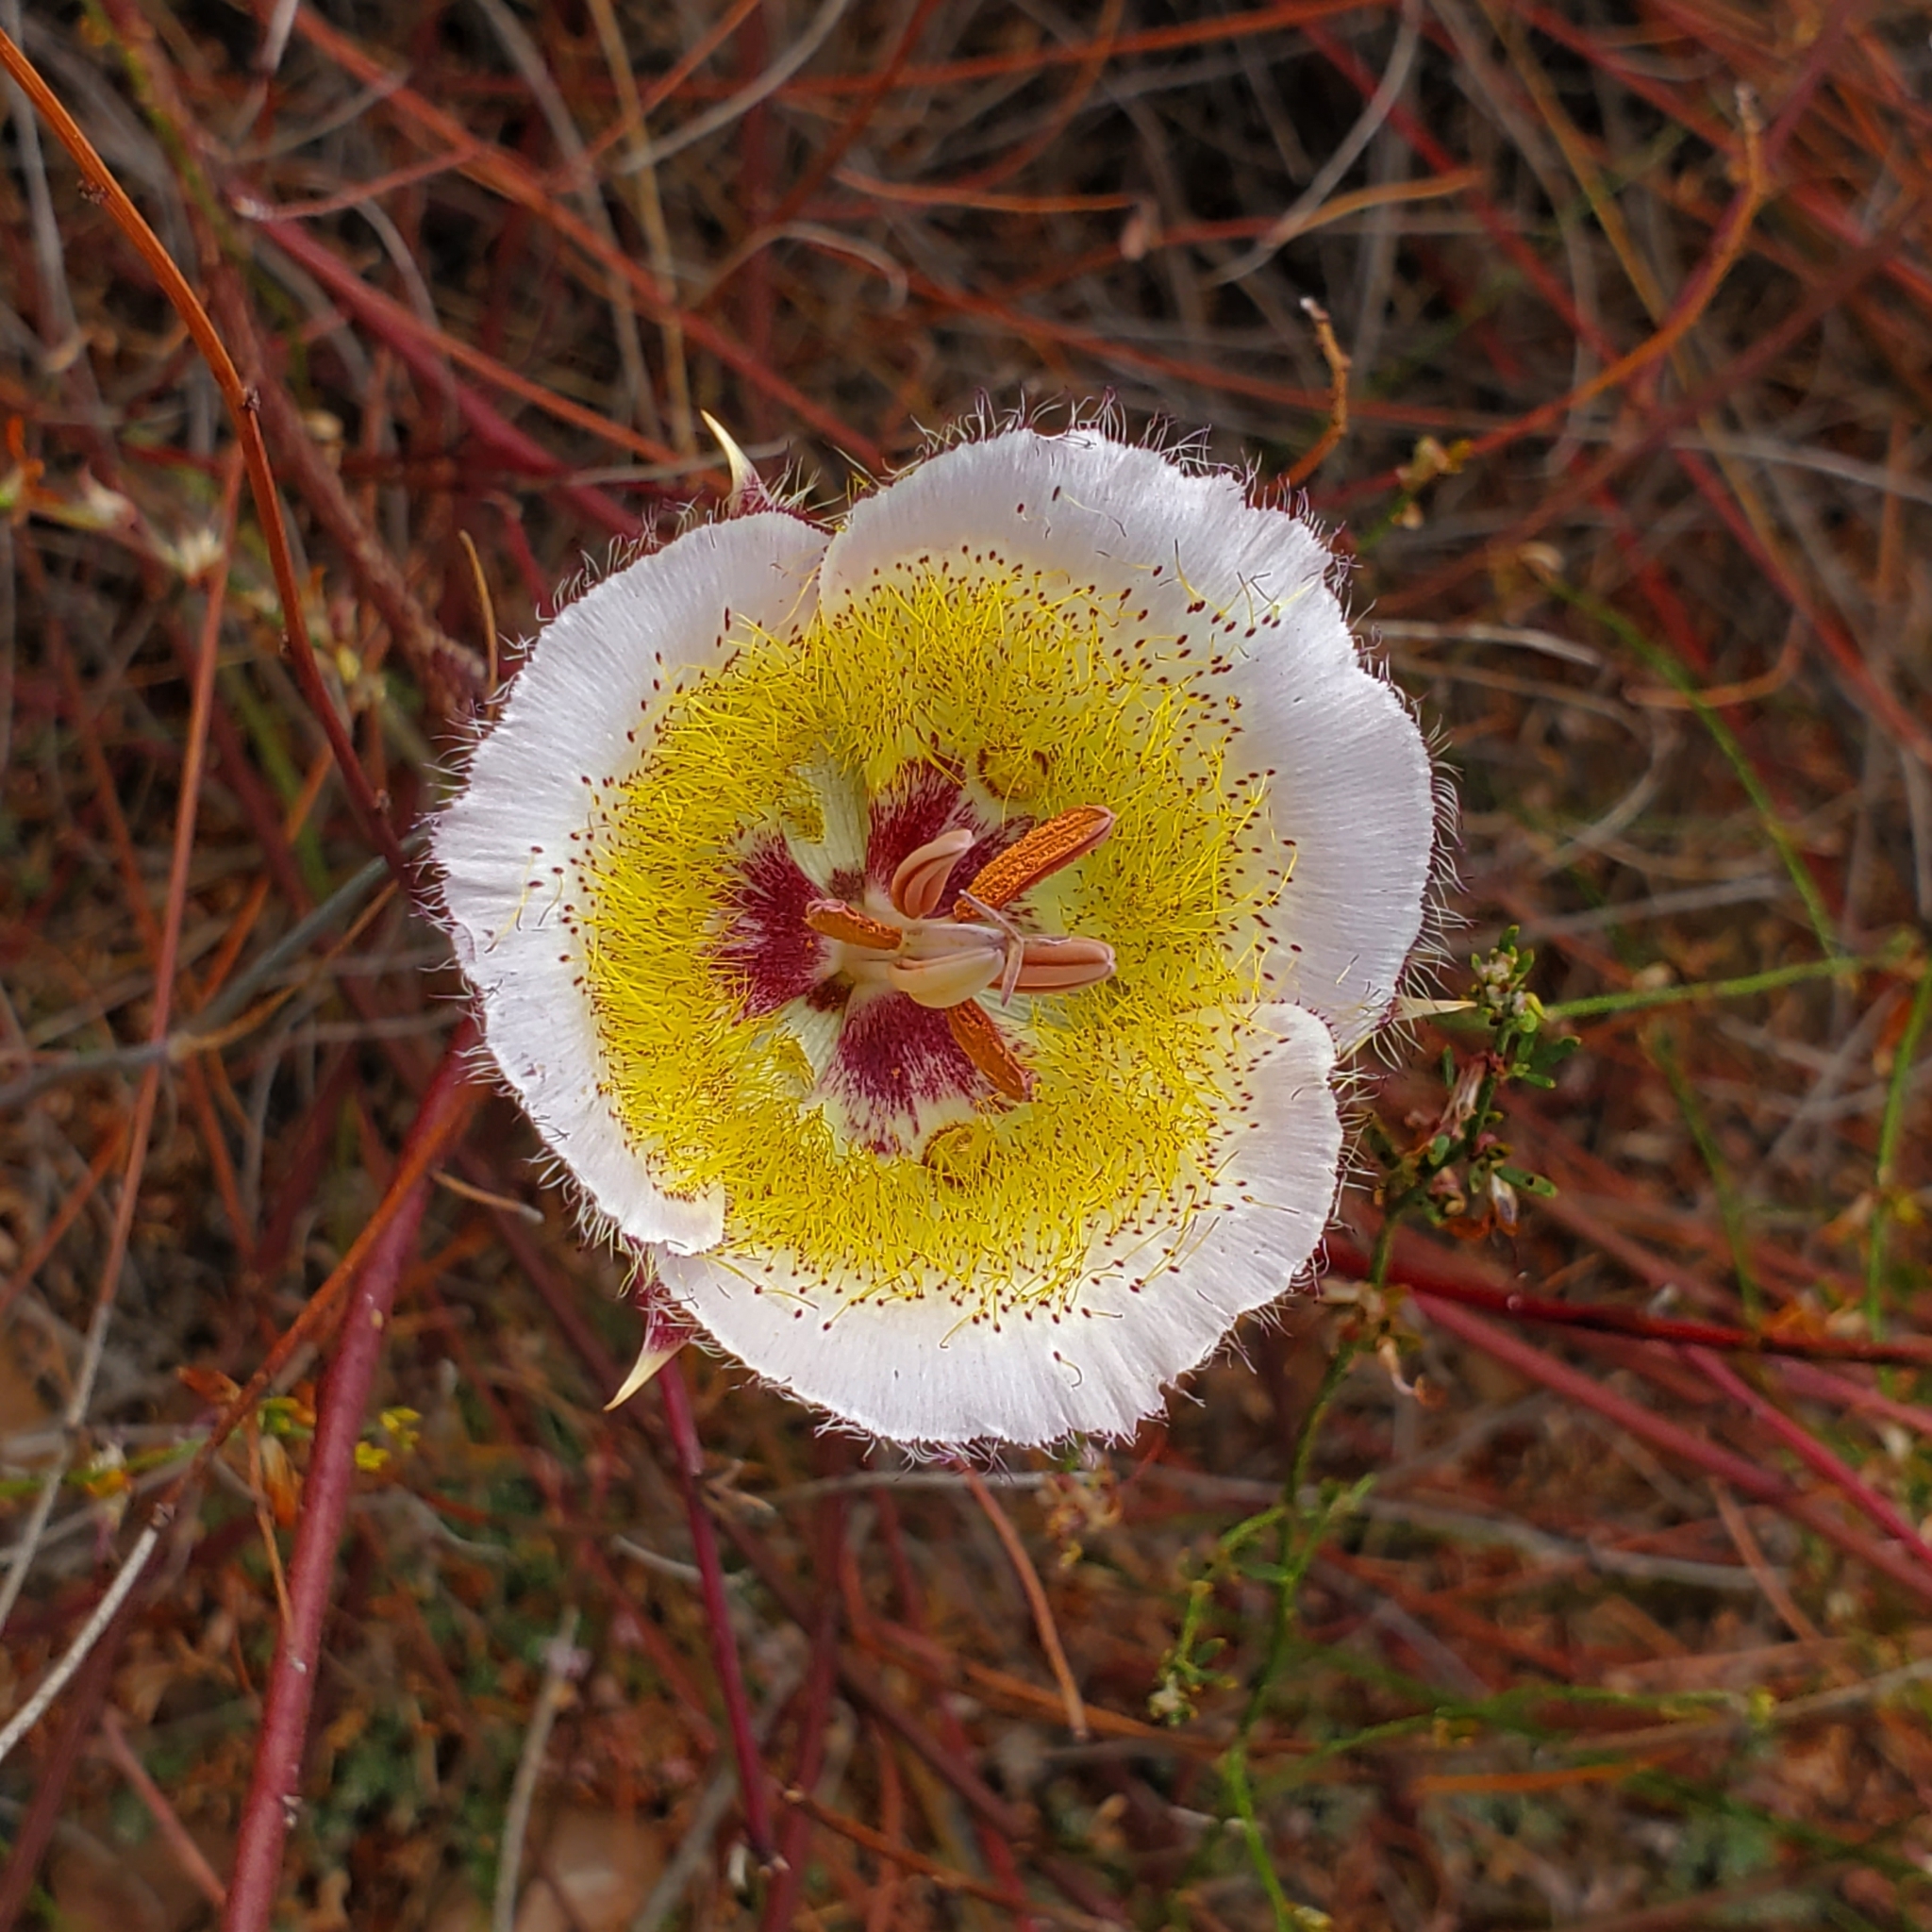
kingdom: Plantae
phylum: Tracheophyta
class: Liliopsida
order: Liliales
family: Liliaceae
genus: Calochortus
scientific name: Calochortus plummerae
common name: Plummer's mariposa-lily
